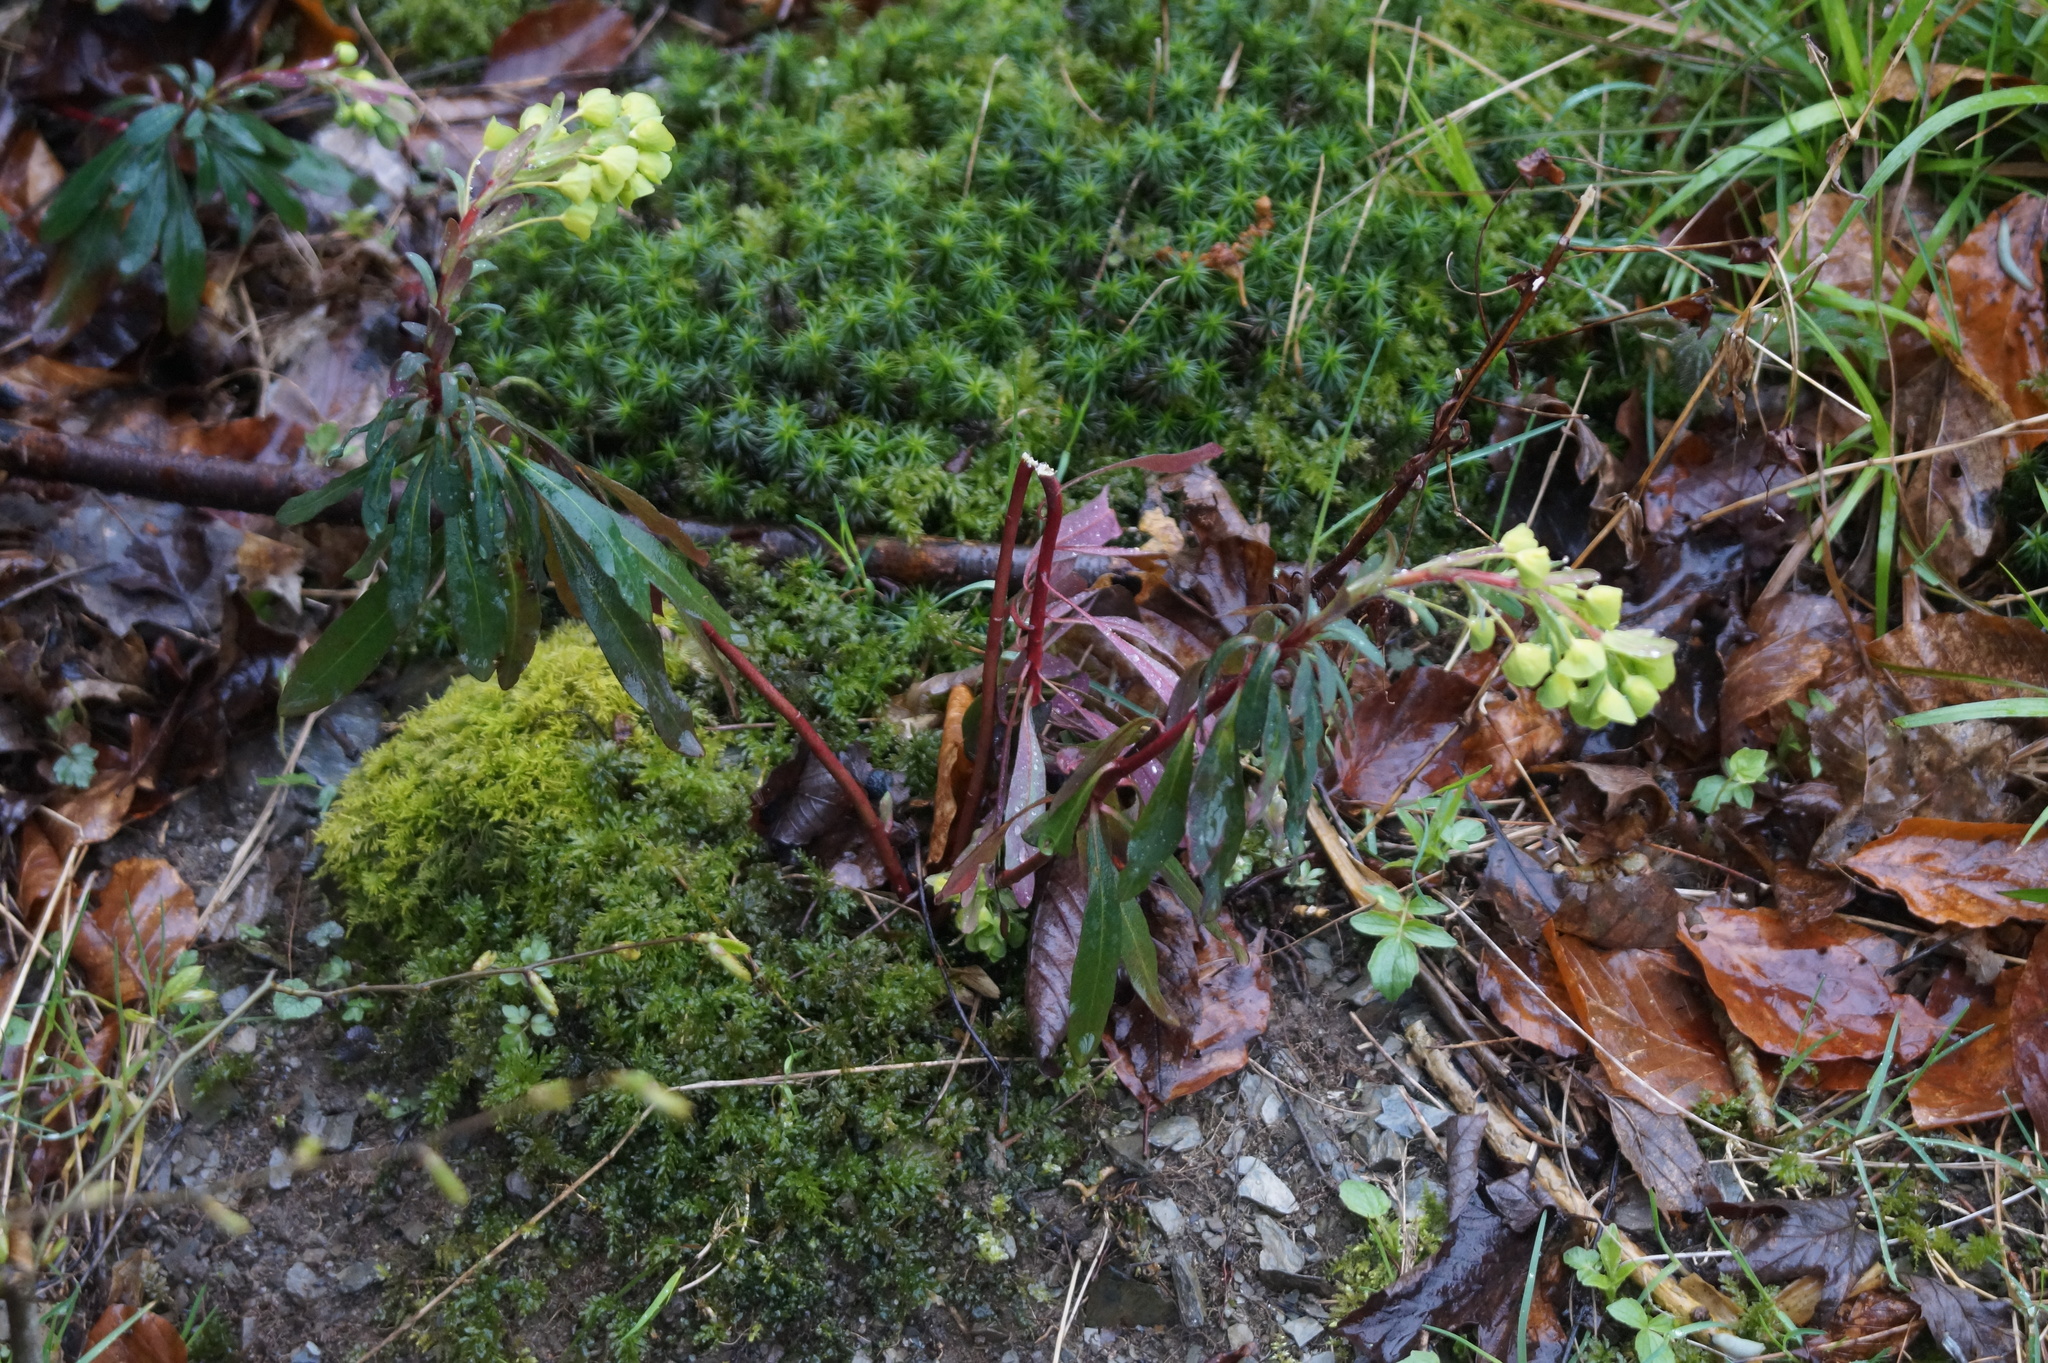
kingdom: Plantae
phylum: Tracheophyta
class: Magnoliopsida
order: Malpighiales
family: Euphorbiaceae
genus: Euphorbia
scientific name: Euphorbia amygdaloides
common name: Wood spurge
